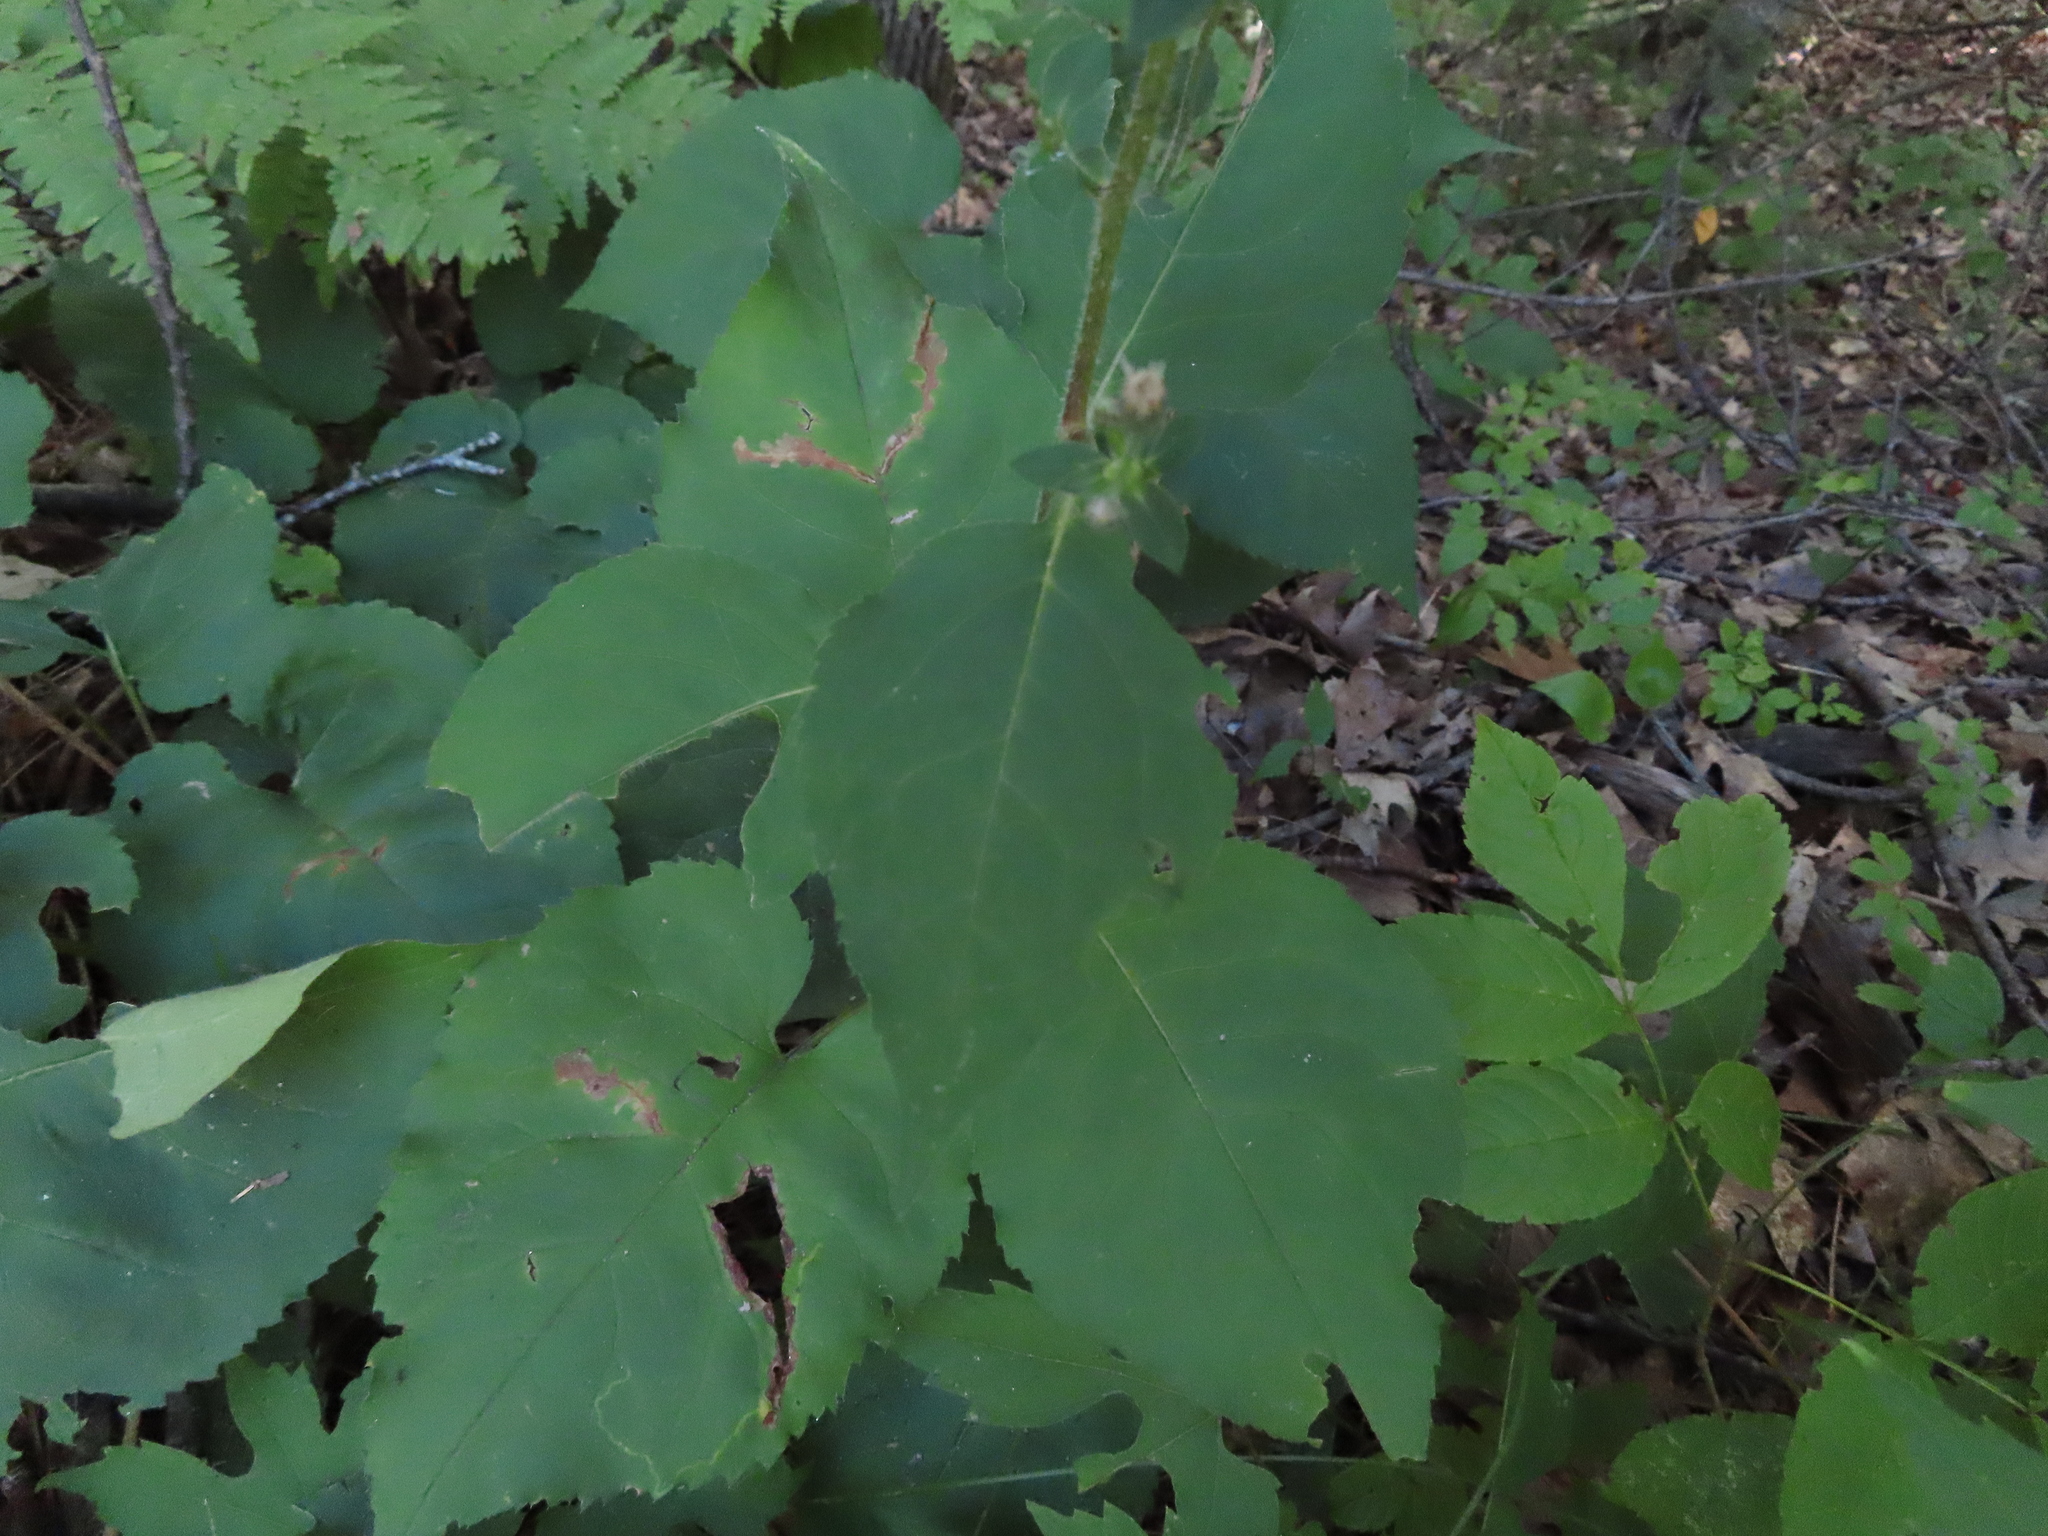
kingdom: Plantae
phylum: Tracheophyta
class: Magnoliopsida
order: Asterales
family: Asteraceae
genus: Eurybia
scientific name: Eurybia macrophylla
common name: Big-leaved aster
